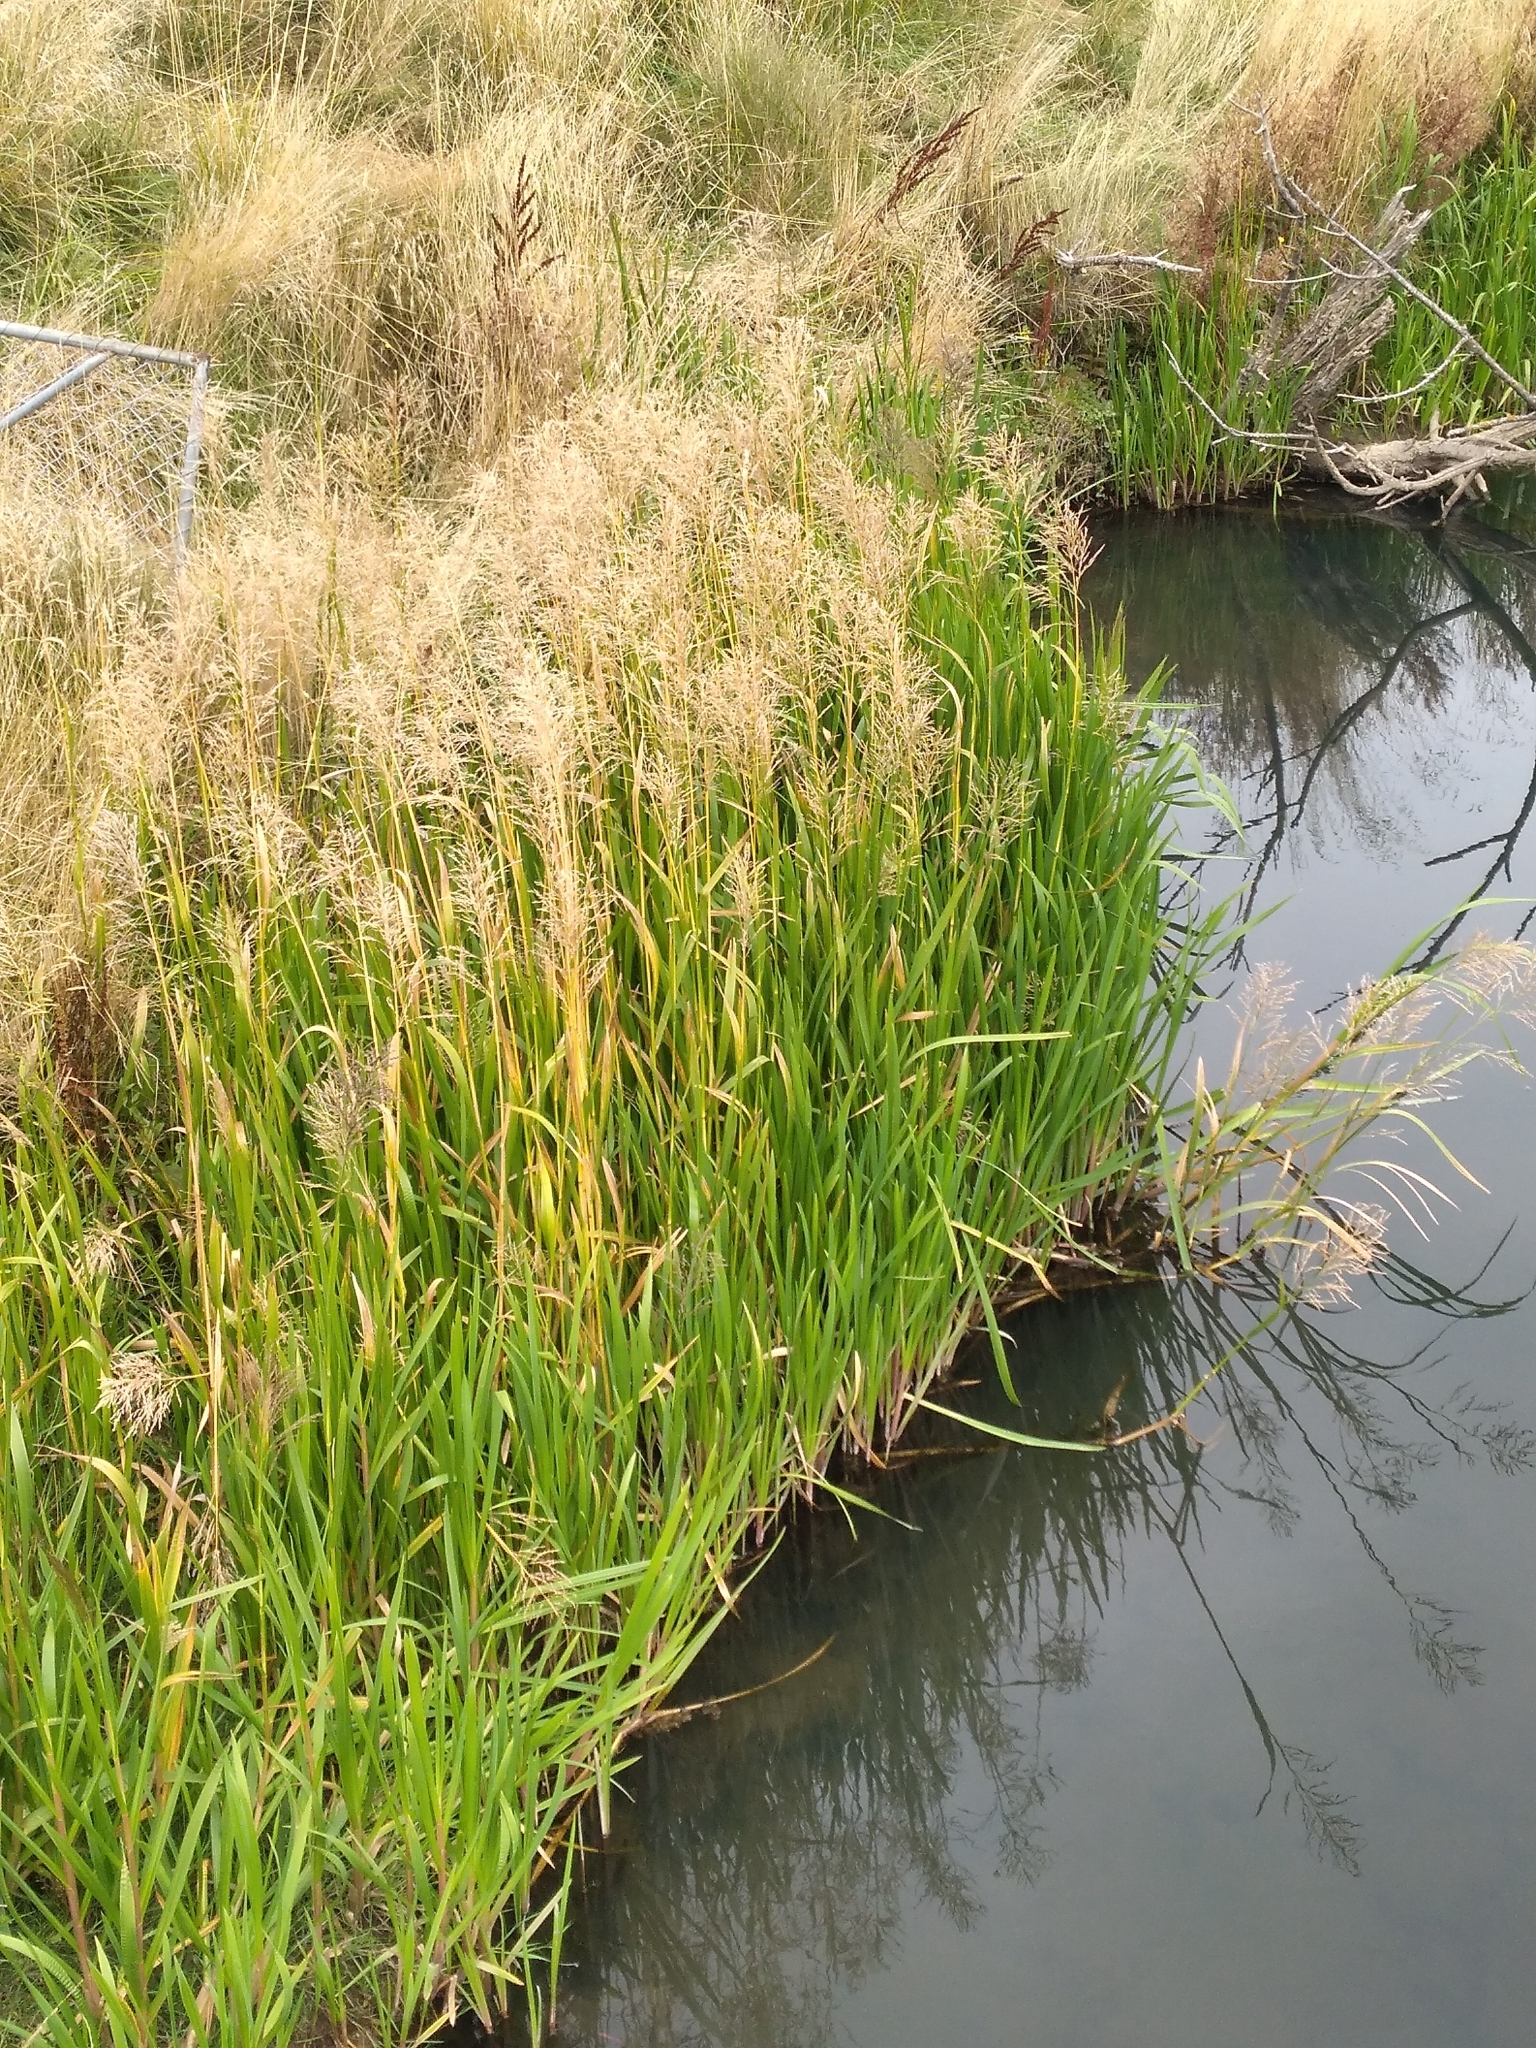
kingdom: Plantae
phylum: Tracheophyta
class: Liliopsida
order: Poales
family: Poaceae
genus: Glyceria
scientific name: Glyceria maxima
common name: Reed mannagrass
